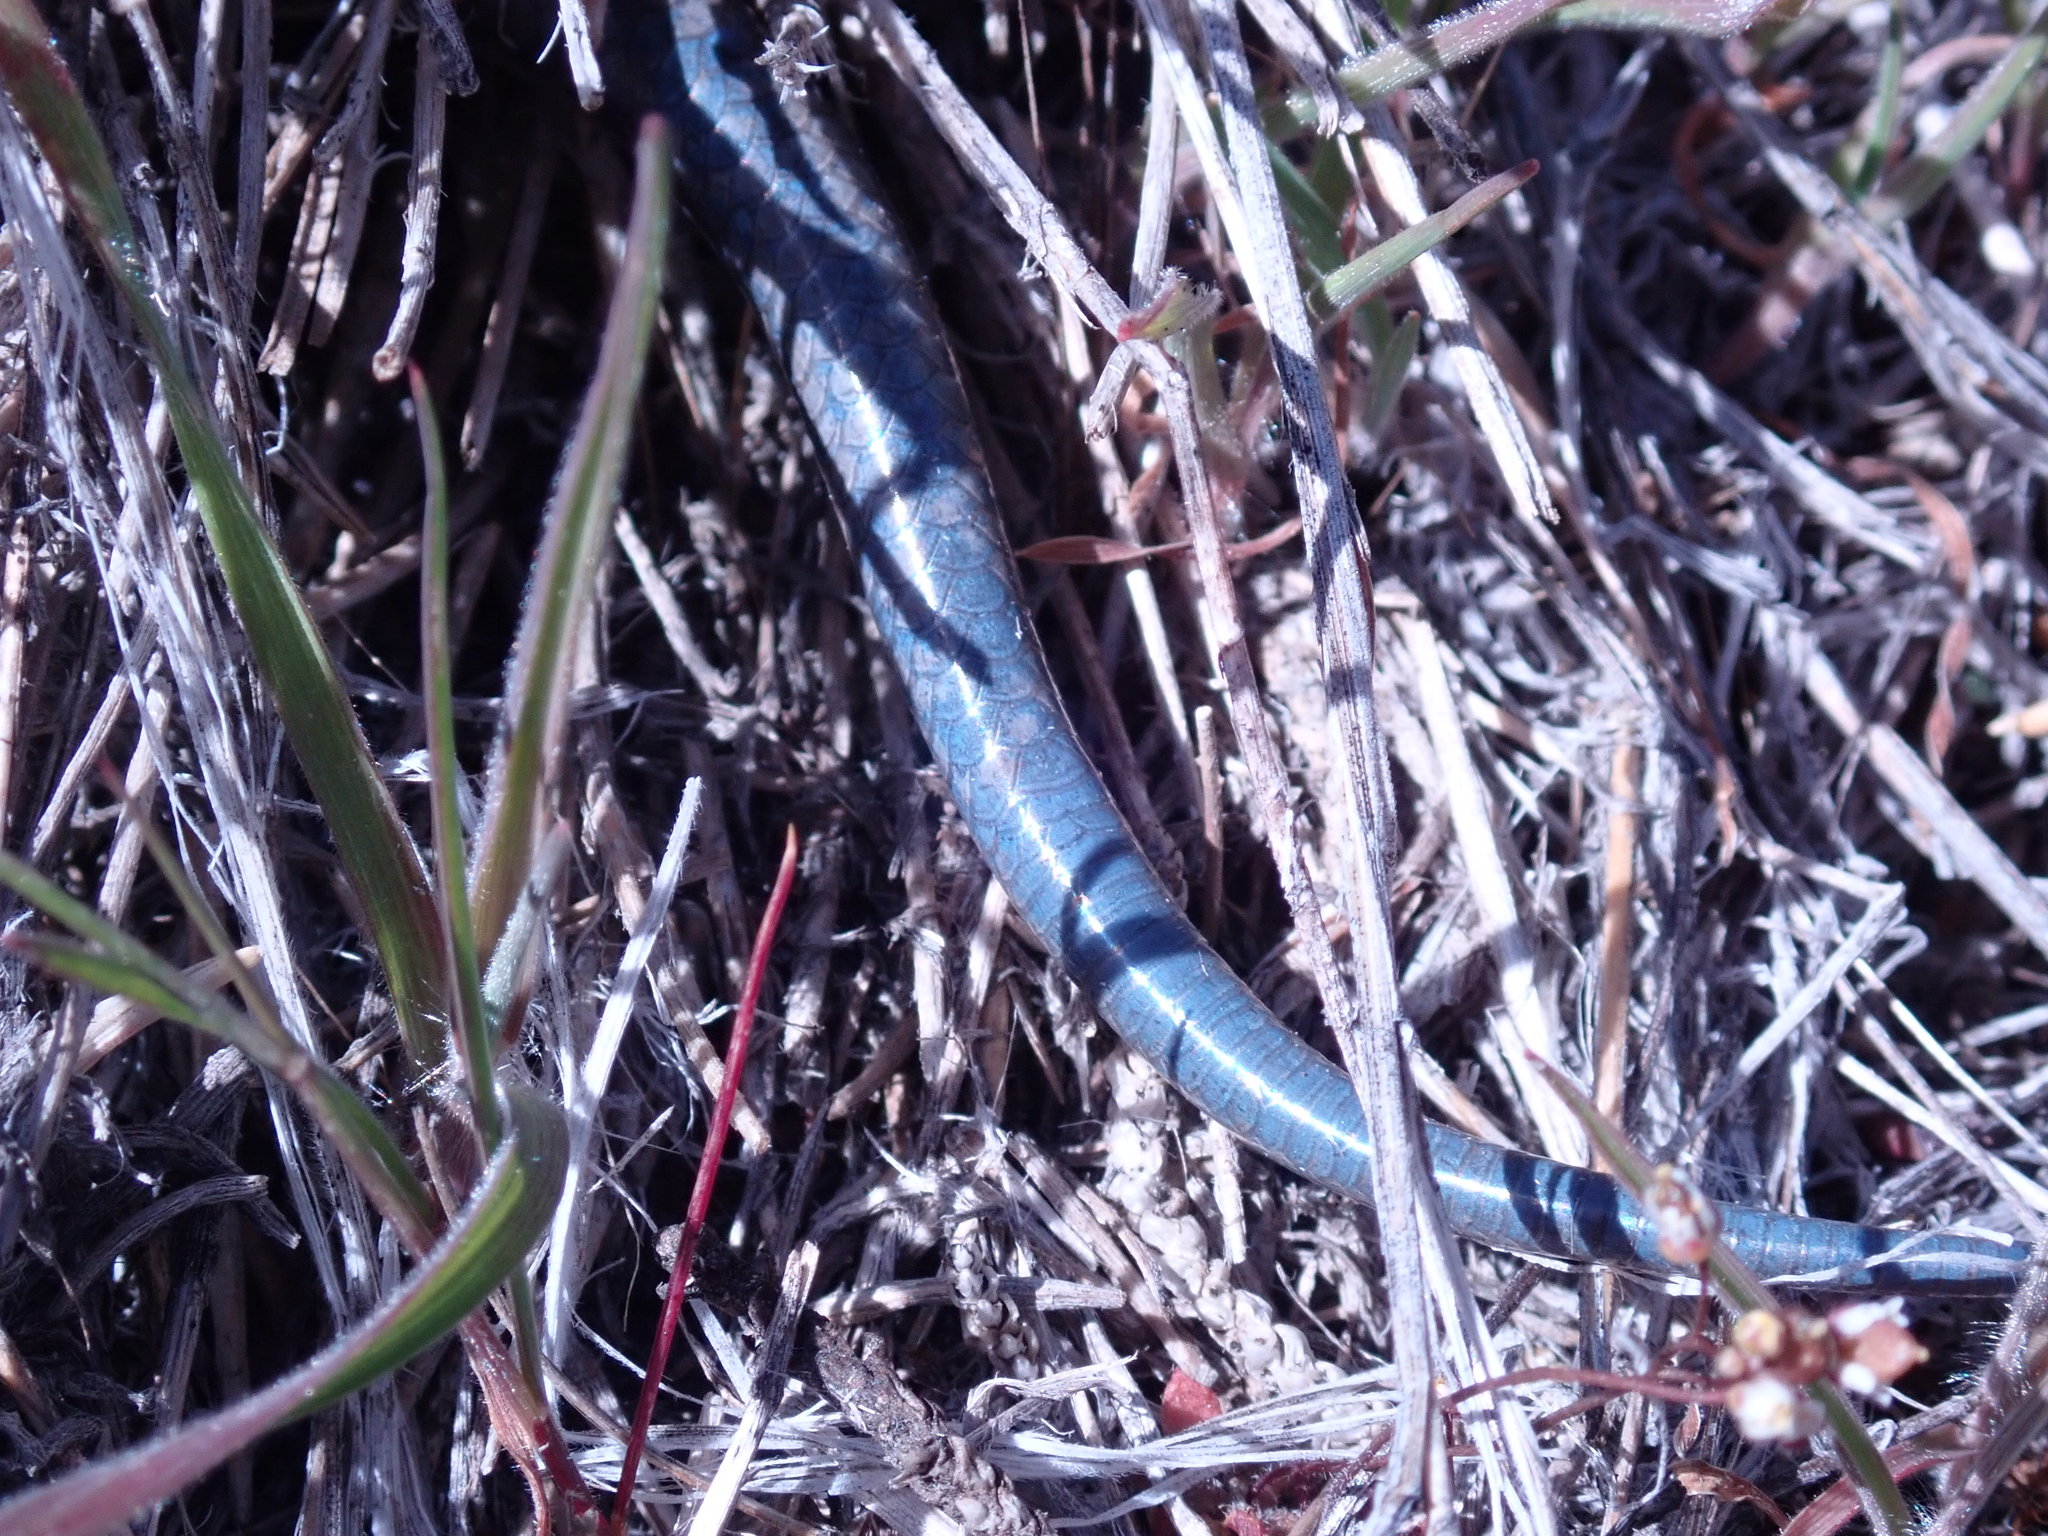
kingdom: Animalia
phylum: Chordata
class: Squamata
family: Scincidae
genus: Plestiodon
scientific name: Plestiodon skiltonianus
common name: Coronado island skink [interparietalis]
